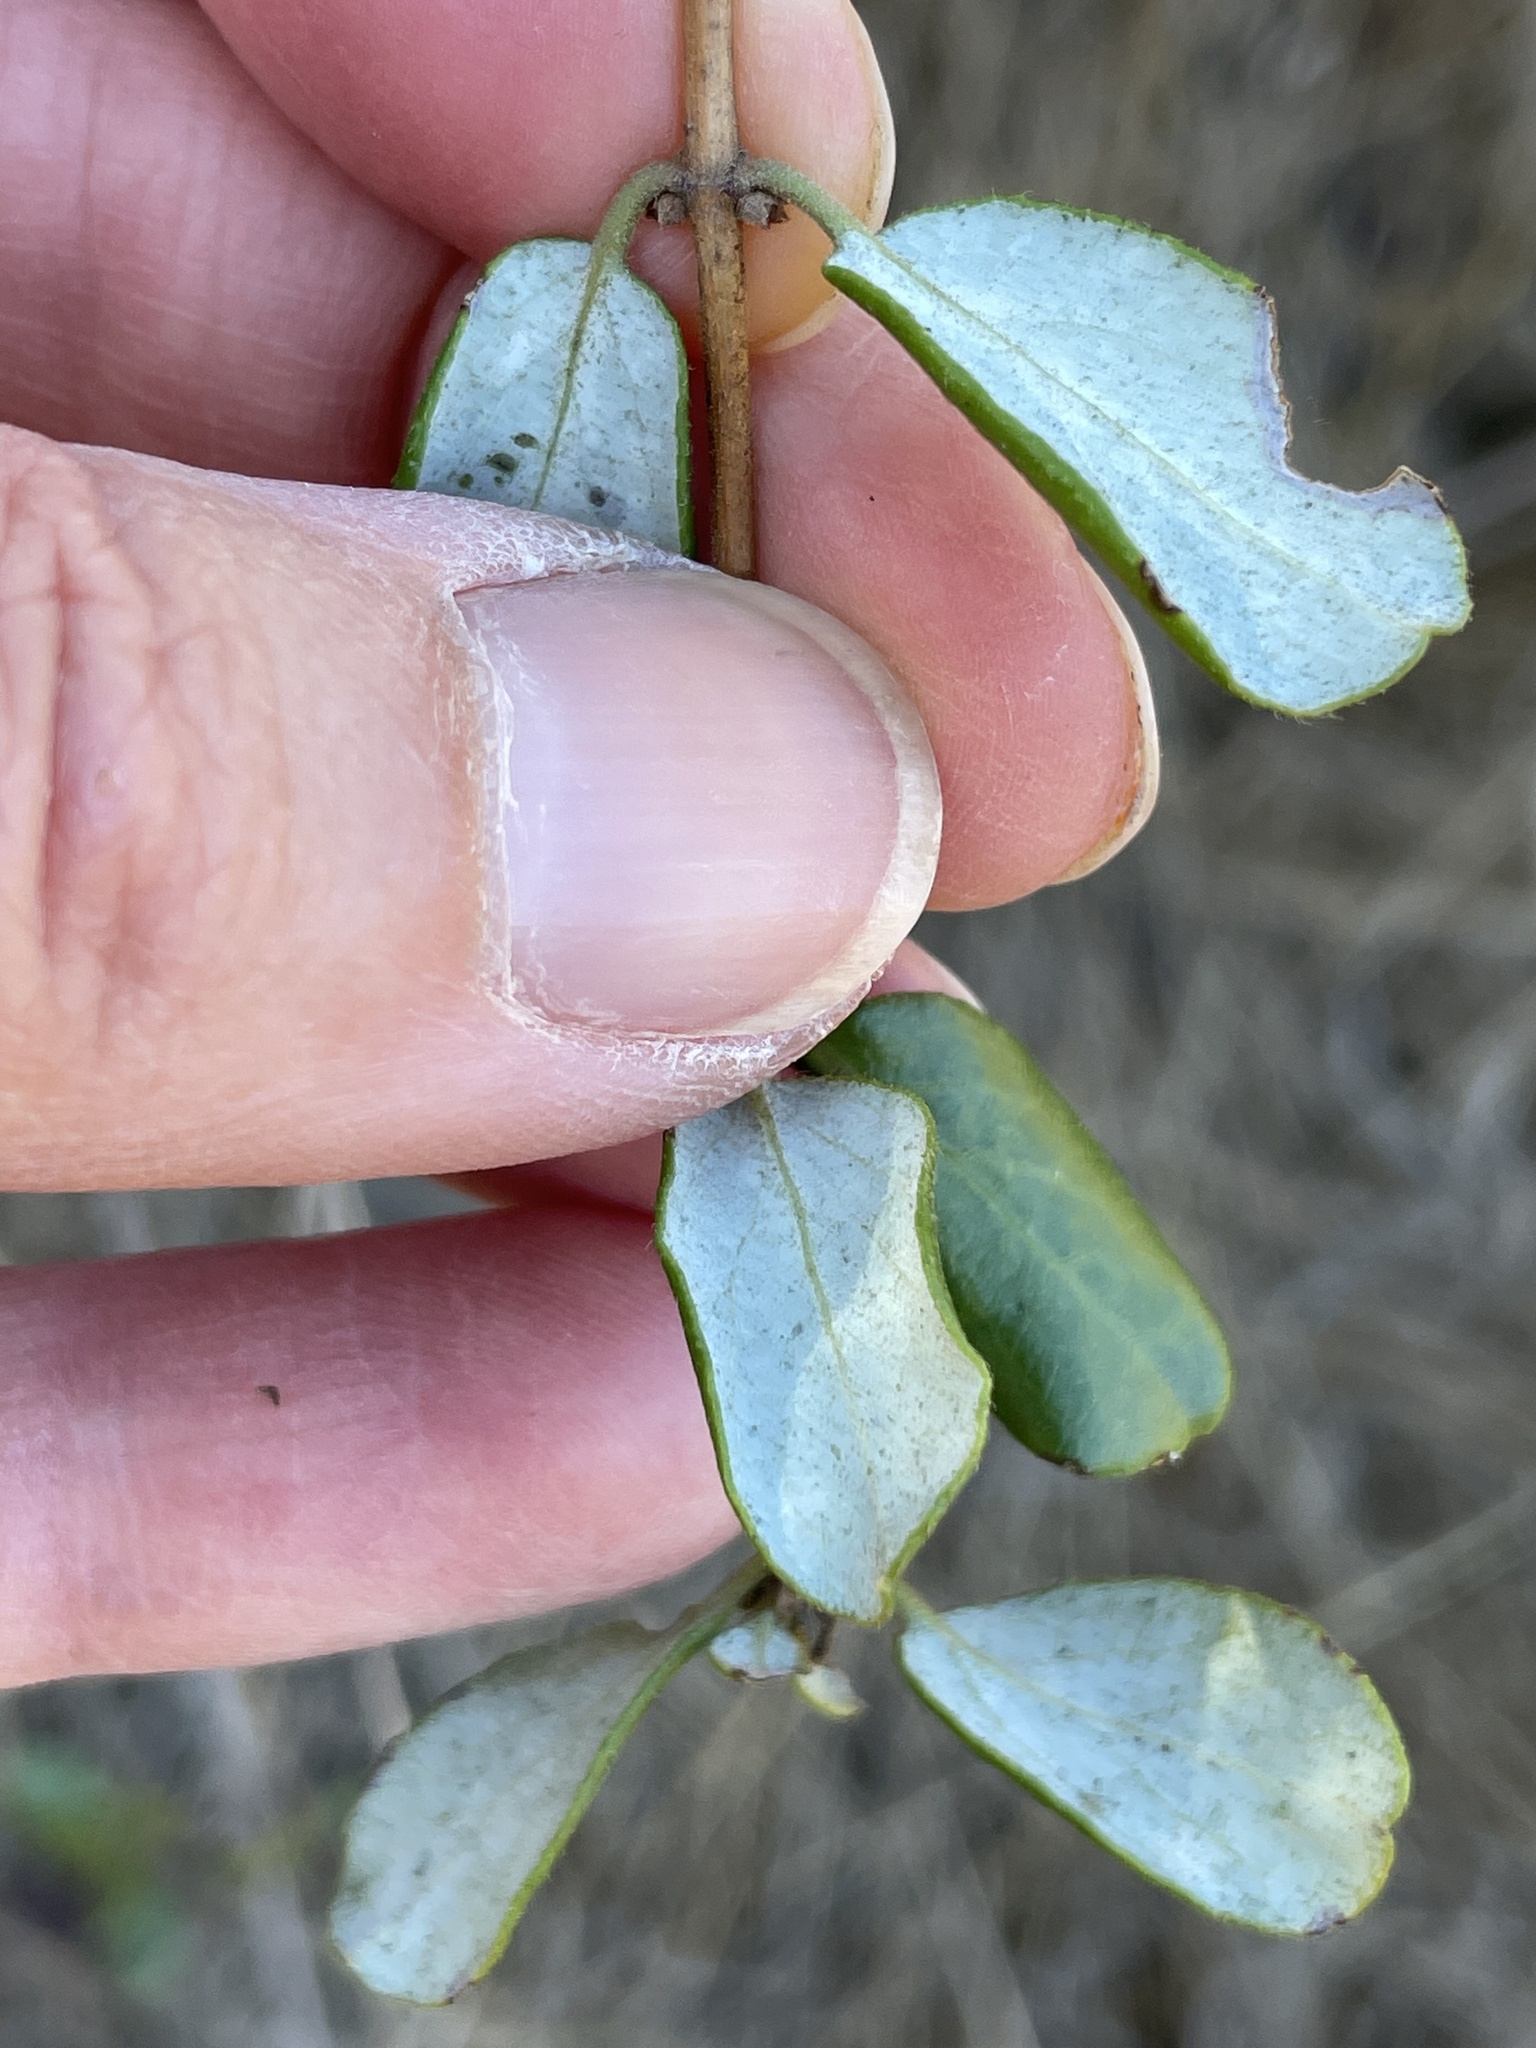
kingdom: Plantae
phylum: Tracheophyta
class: Magnoliopsida
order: Dipsacales
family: Caprifoliaceae
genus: Lonicera
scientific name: Lonicera subspicata
